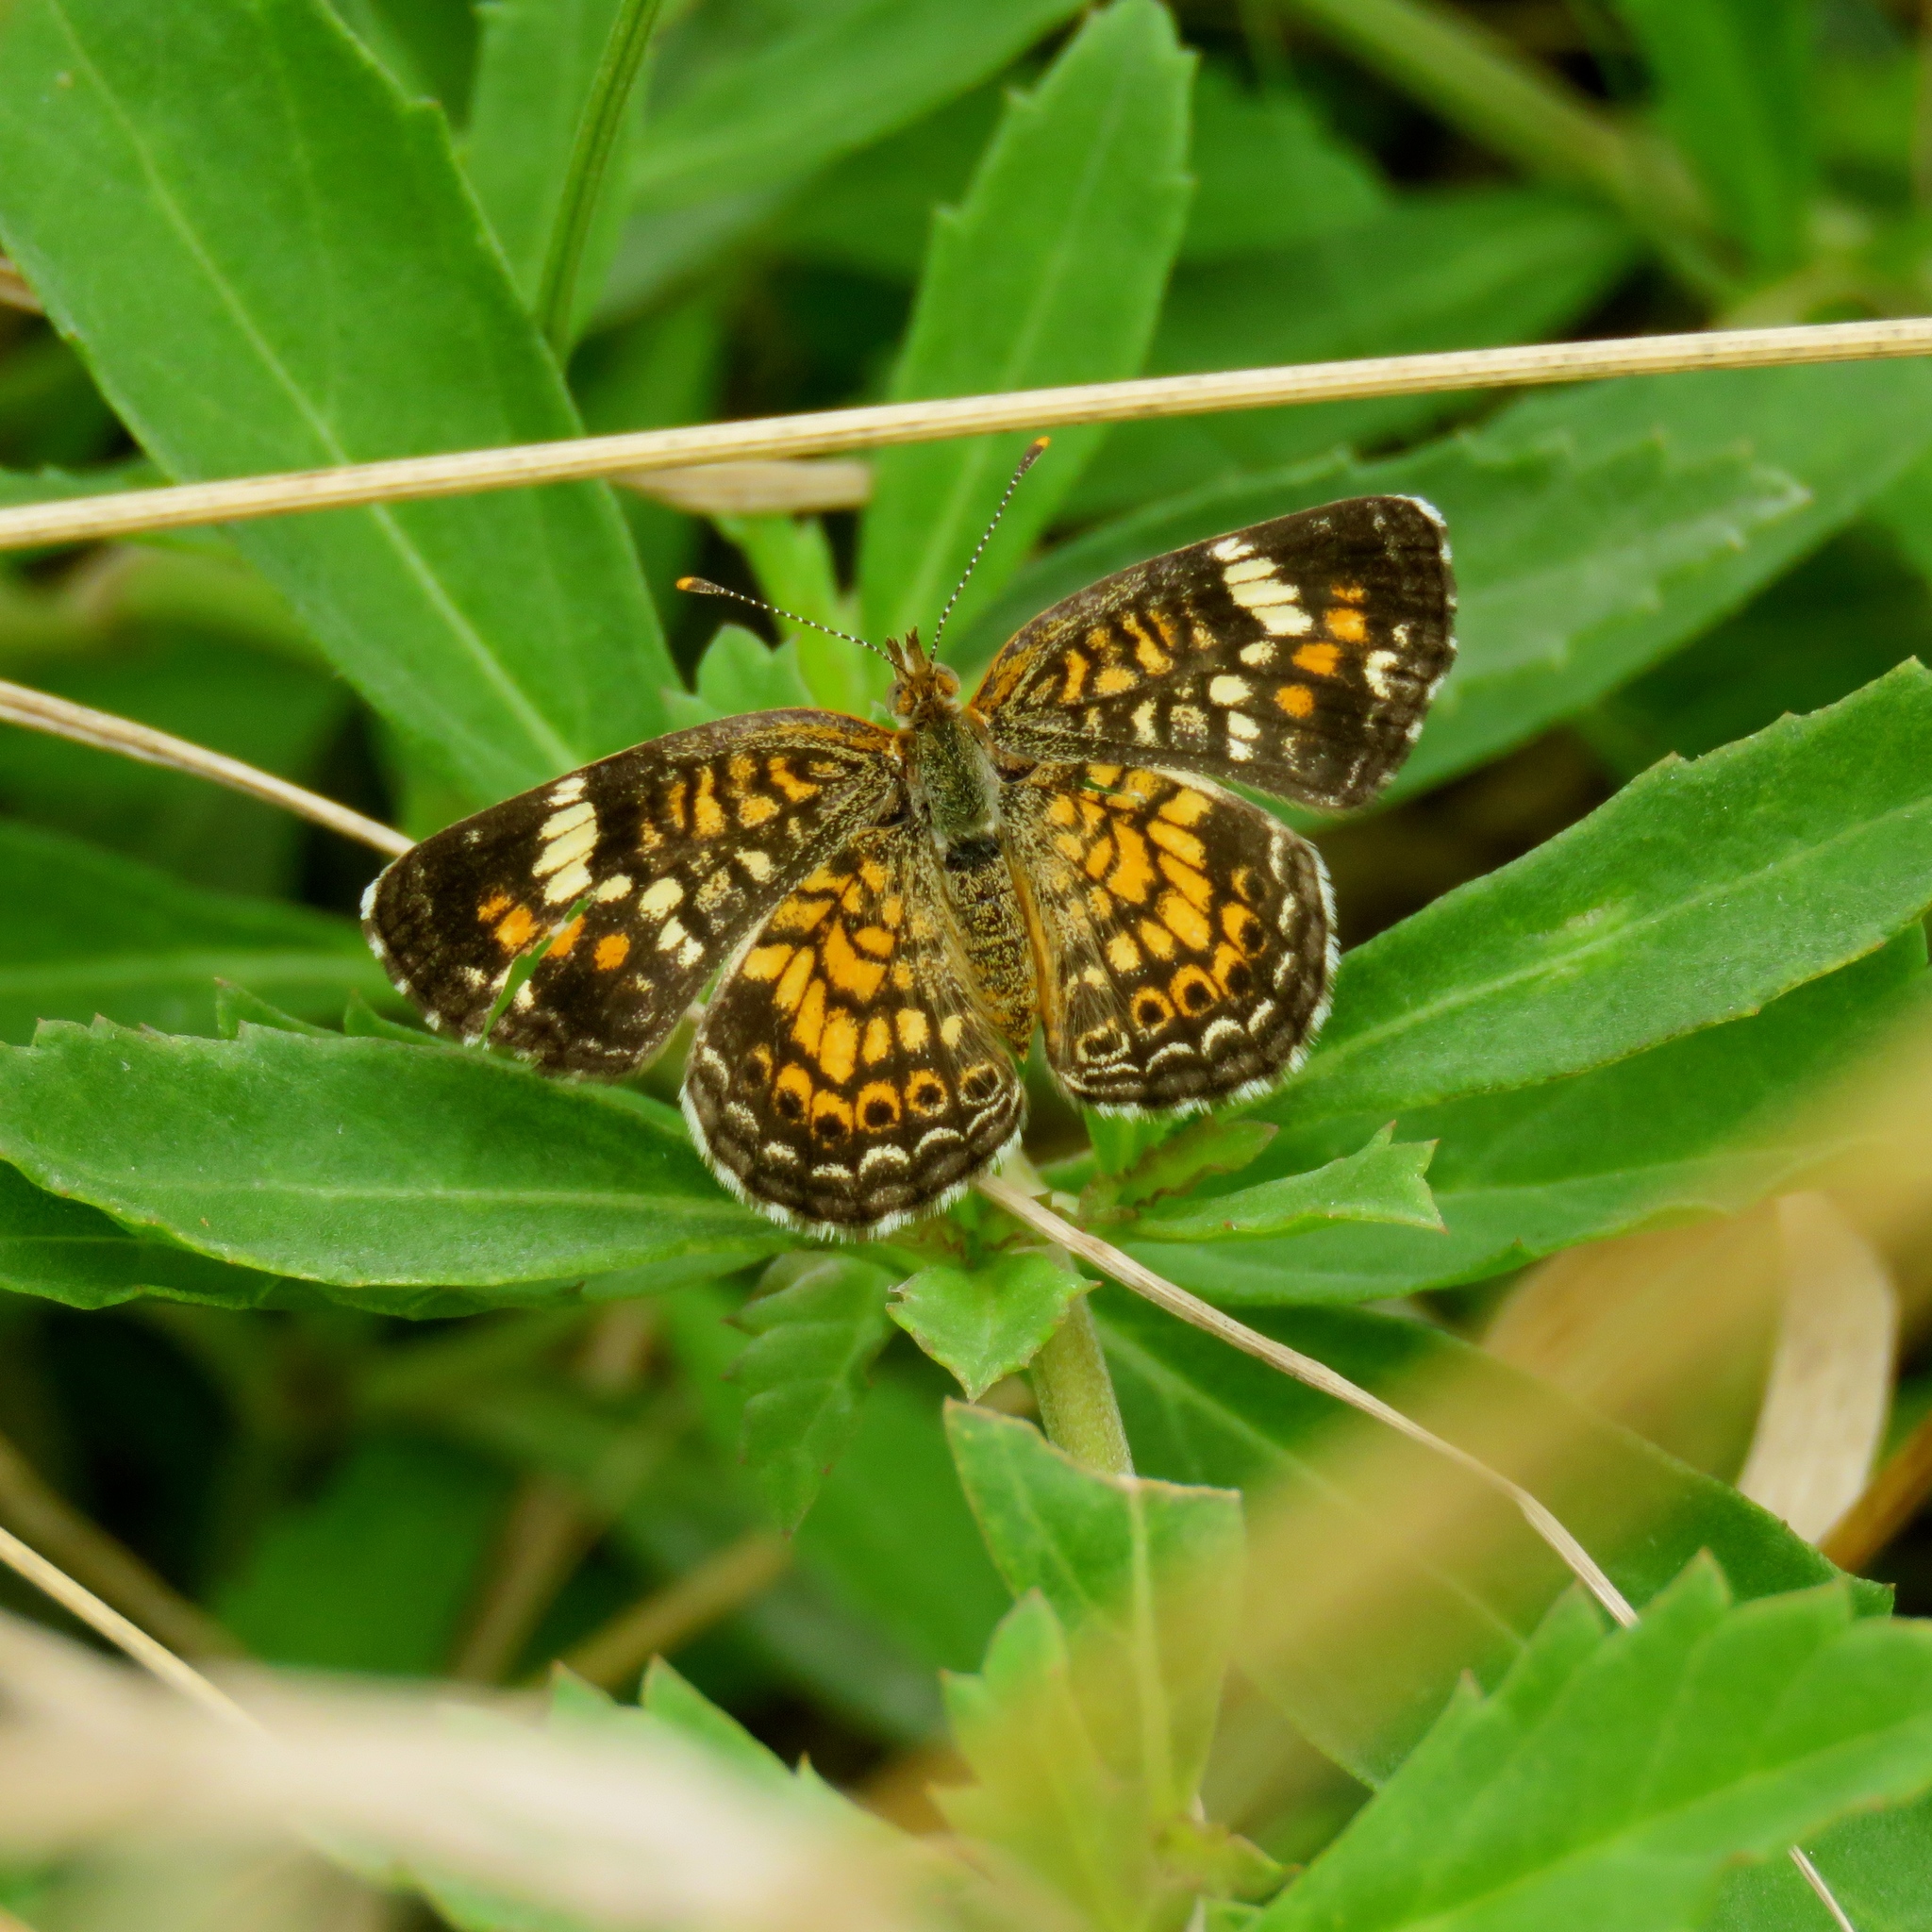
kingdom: Animalia
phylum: Arthropoda
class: Insecta
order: Lepidoptera
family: Nymphalidae
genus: Phyciodes
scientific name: Phyciodes phaon
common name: Phaon crescent
